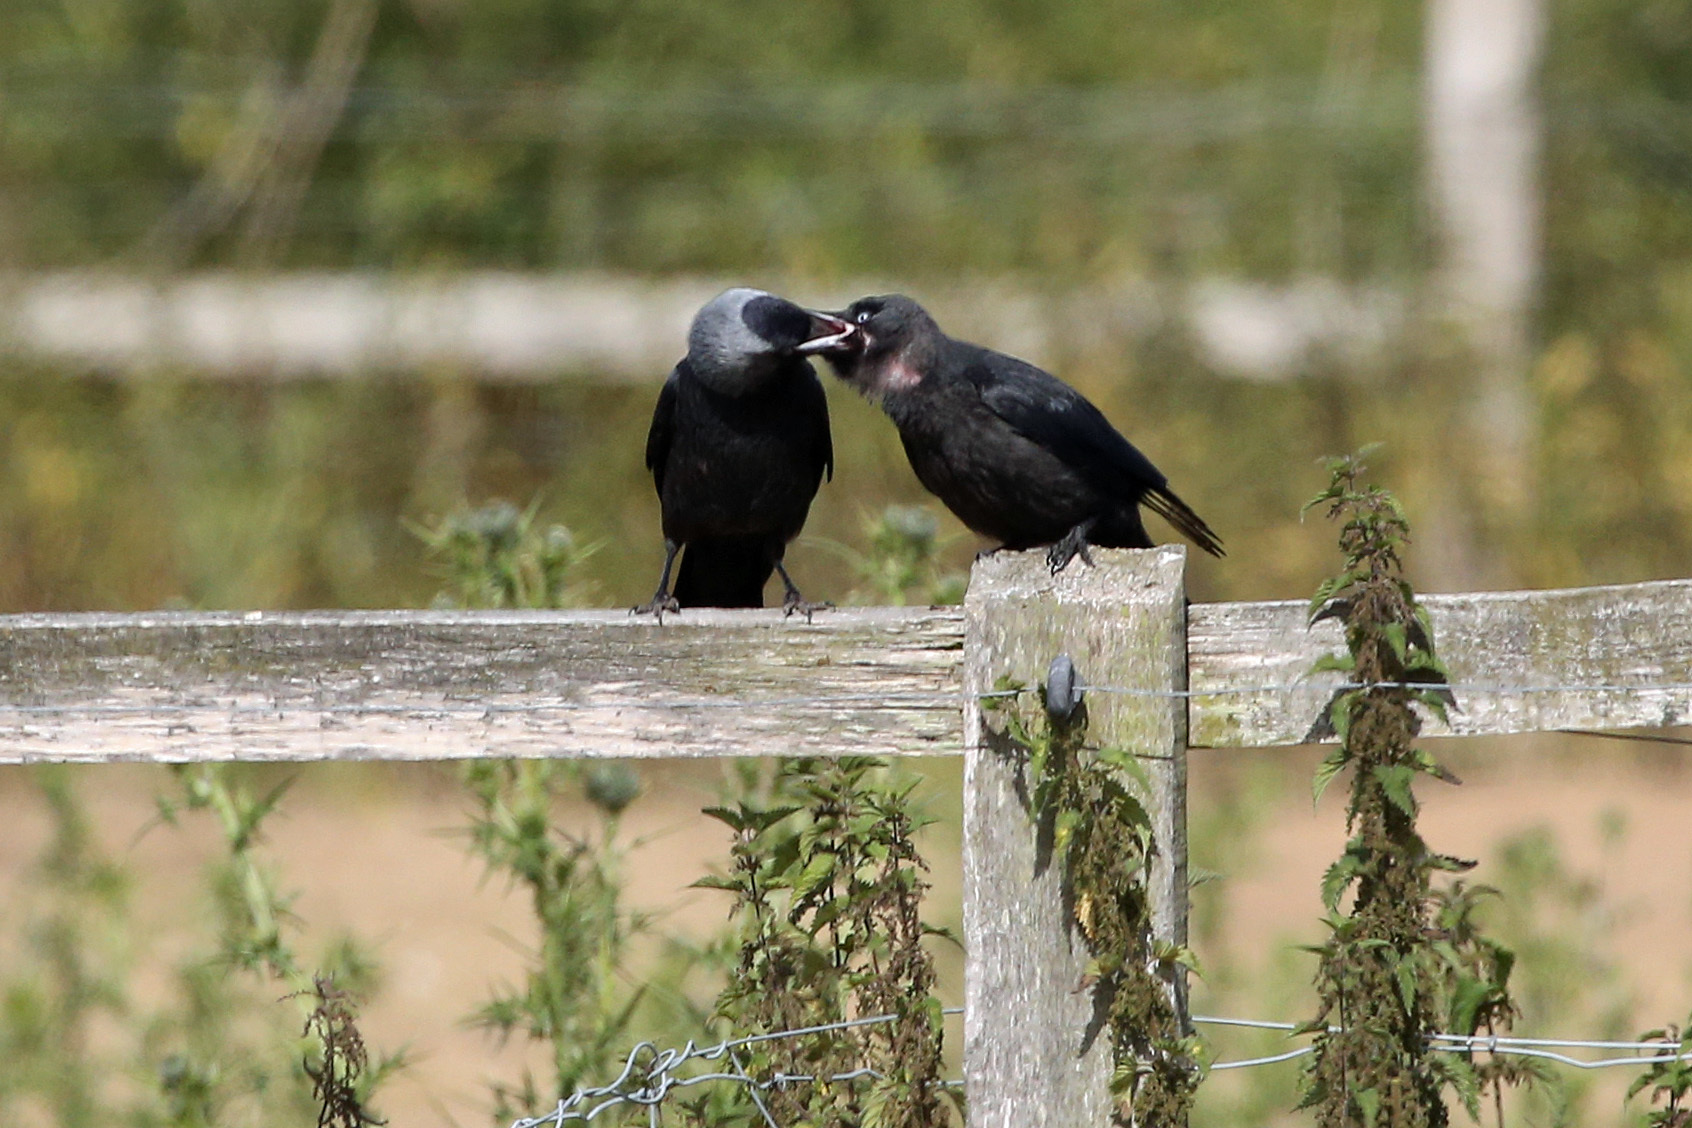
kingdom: Animalia
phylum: Chordata
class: Aves
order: Passeriformes
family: Corvidae
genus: Coloeus
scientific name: Coloeus monedula
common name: Western jackdaw
